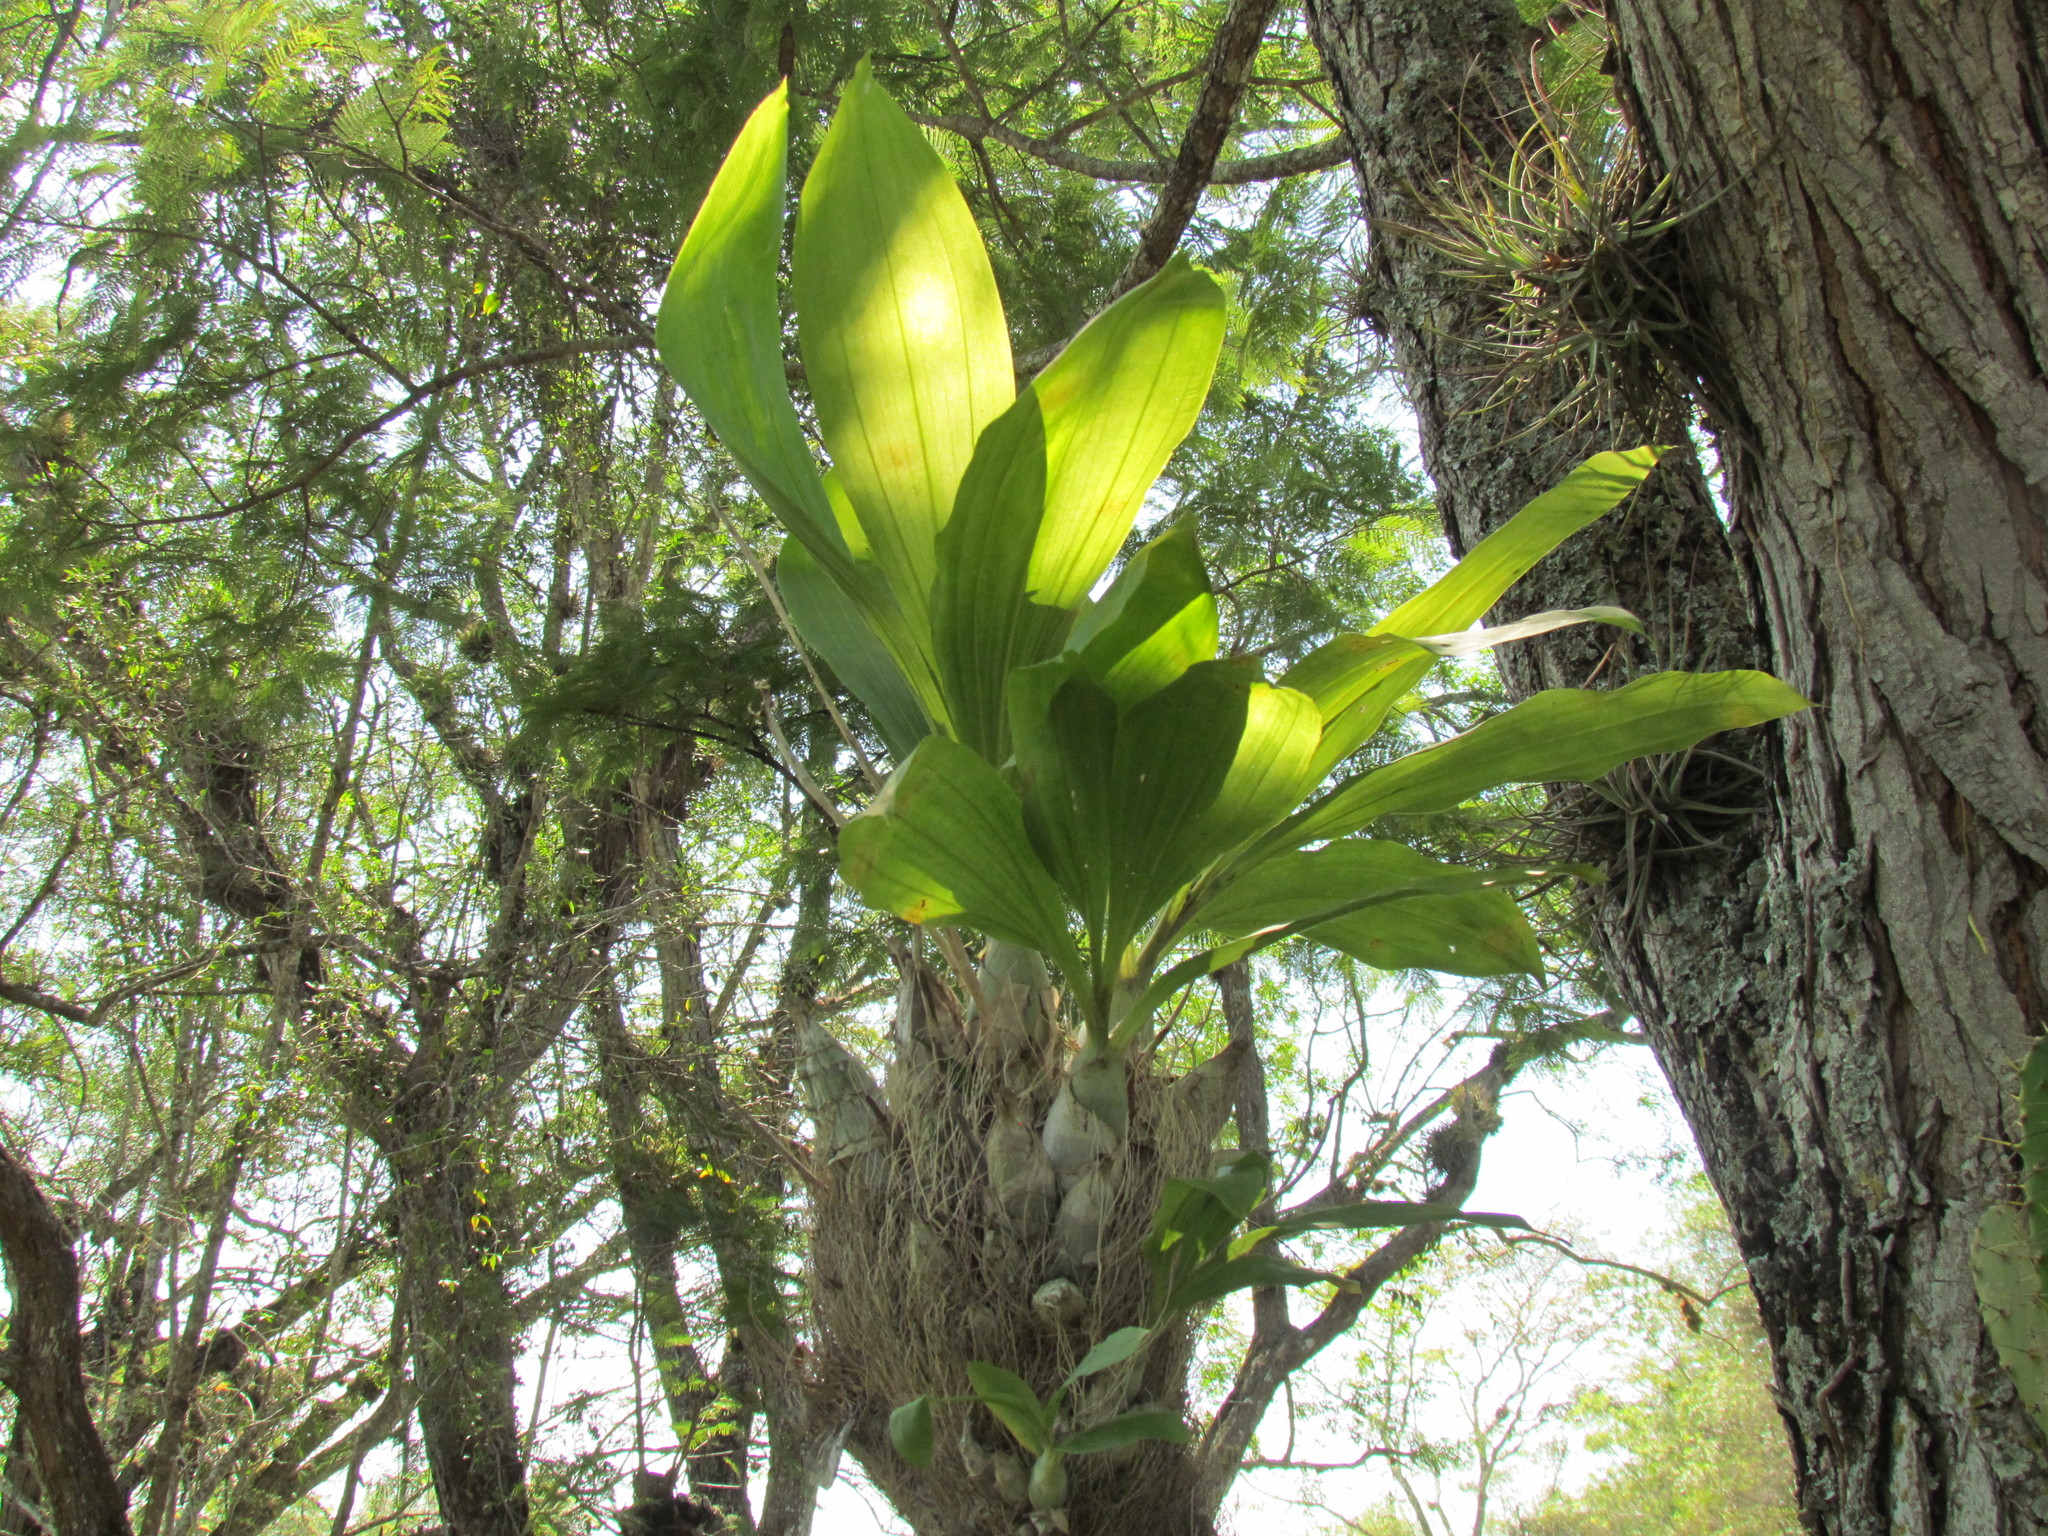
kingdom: Plantae
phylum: Tracheophyta
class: Liliopsida
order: Asparagales
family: Orchidaceae
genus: Catasetum
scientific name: Catasetum integerrimum
